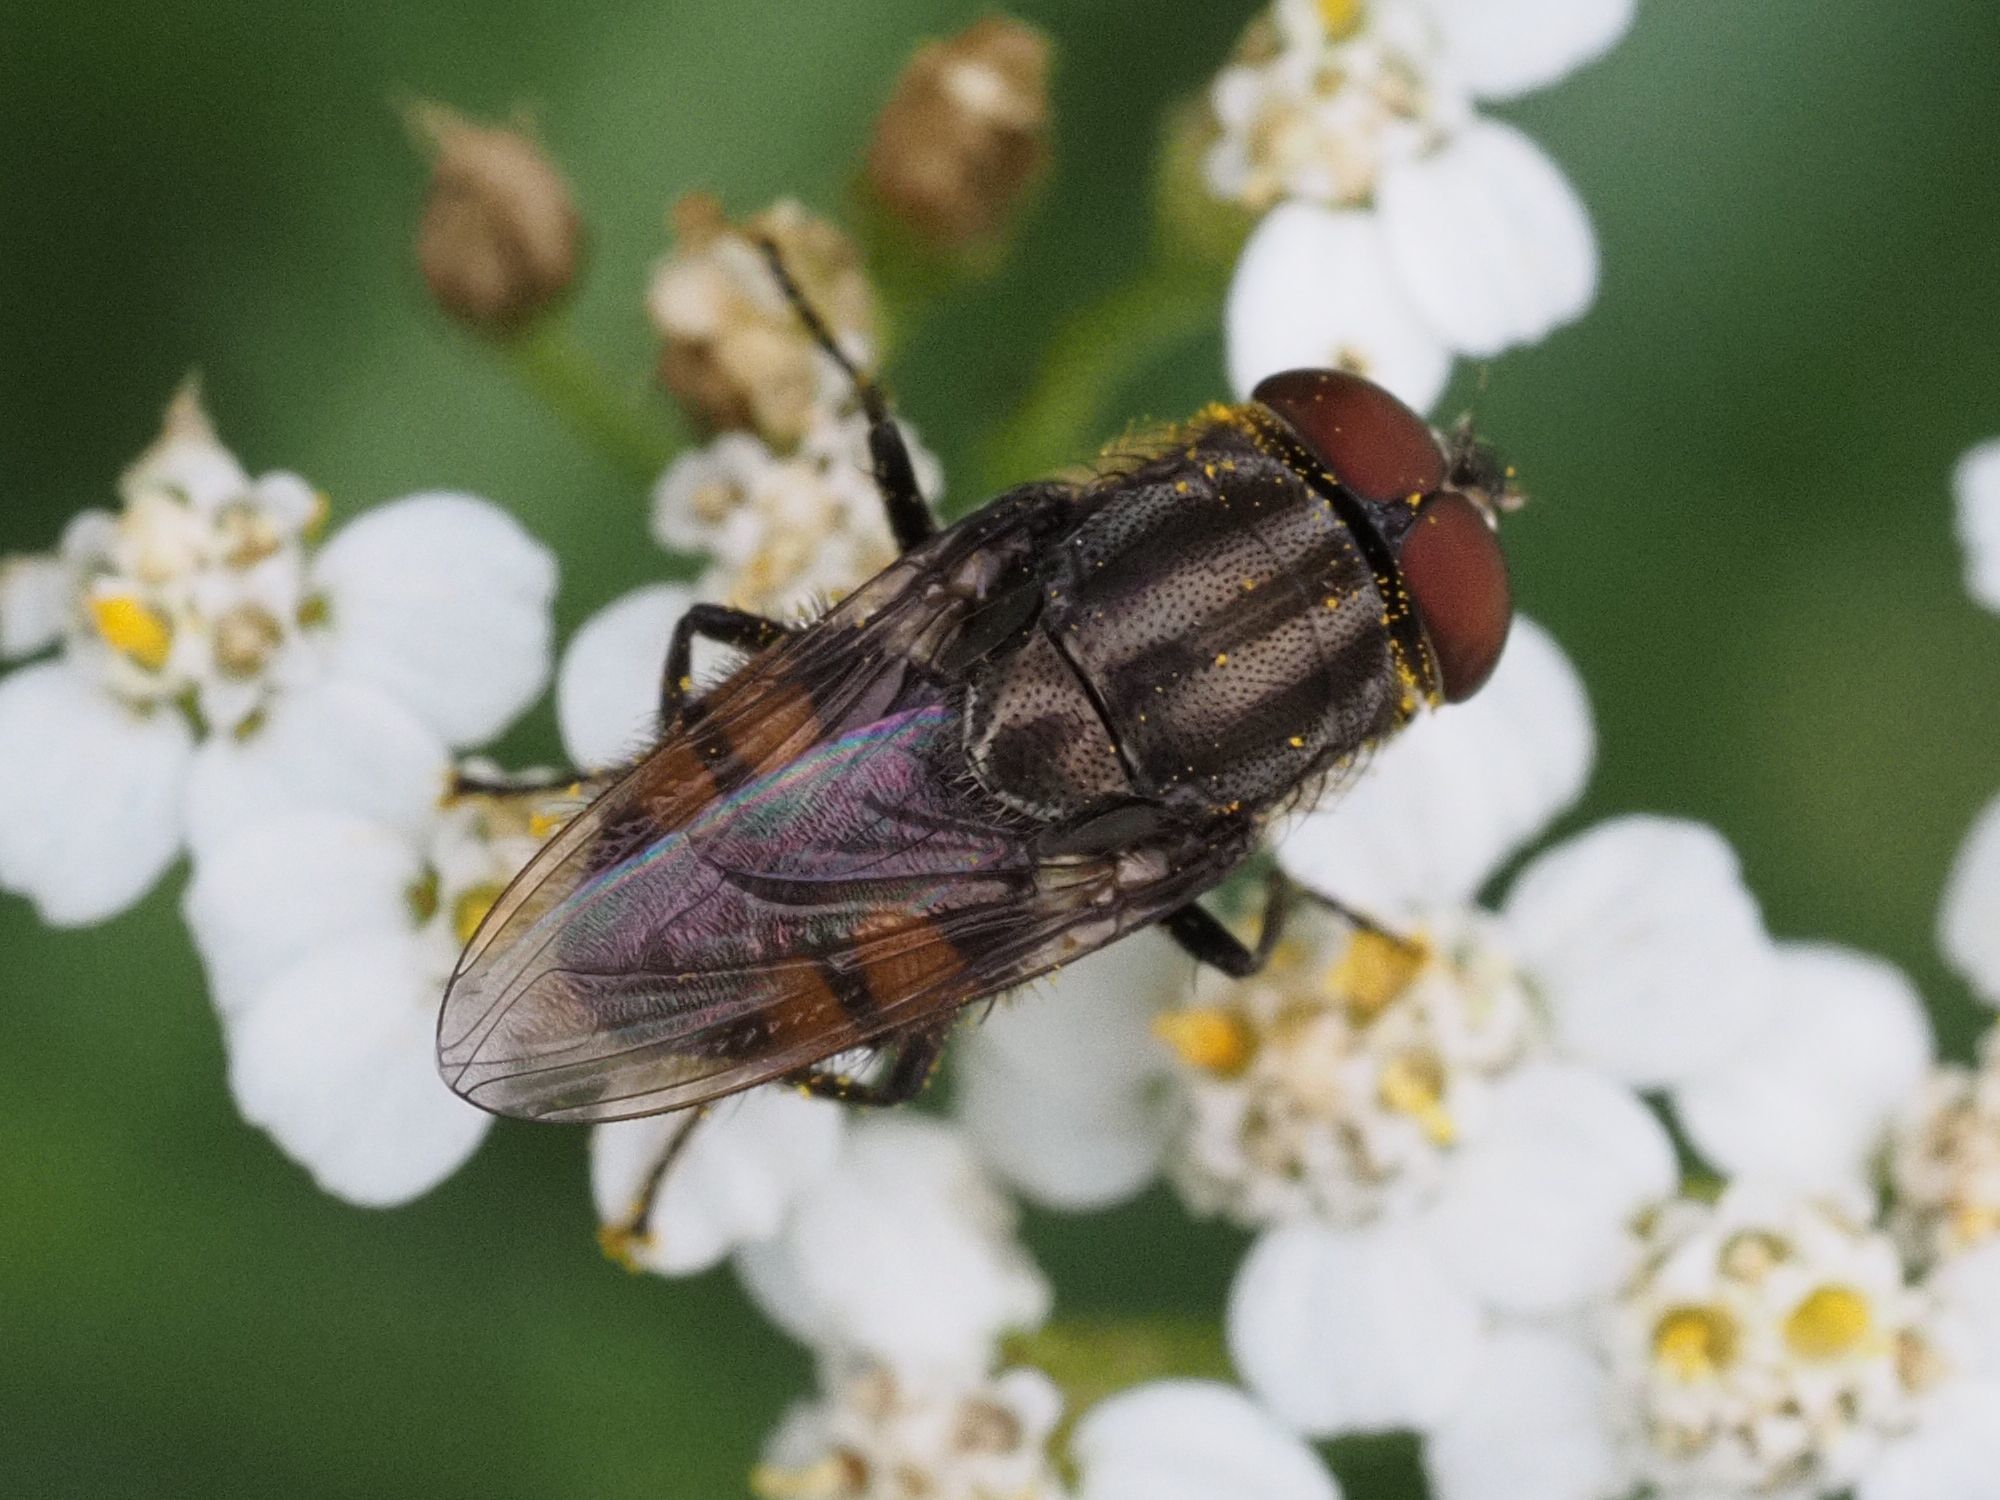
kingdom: Animalia
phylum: Arthropoda
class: Insecta
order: Diptera
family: Calliphoridae
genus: Stomorhina
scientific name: Stomorhina lunata
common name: Locust blowfly
